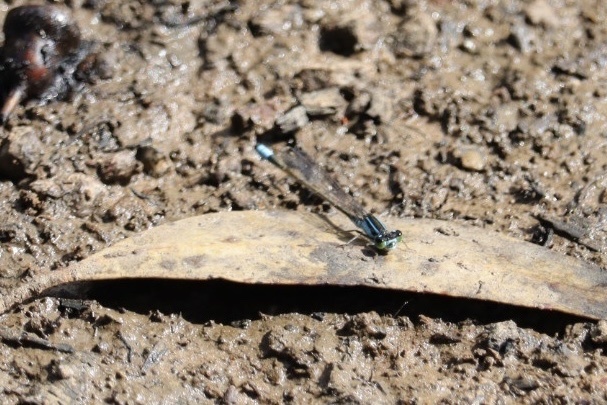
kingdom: Animalia
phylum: Arthropoda
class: Insecta
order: Odonata
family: Coenagrionidae
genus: Ischnura
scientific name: Ischnura heterosticta
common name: Common bluetail
